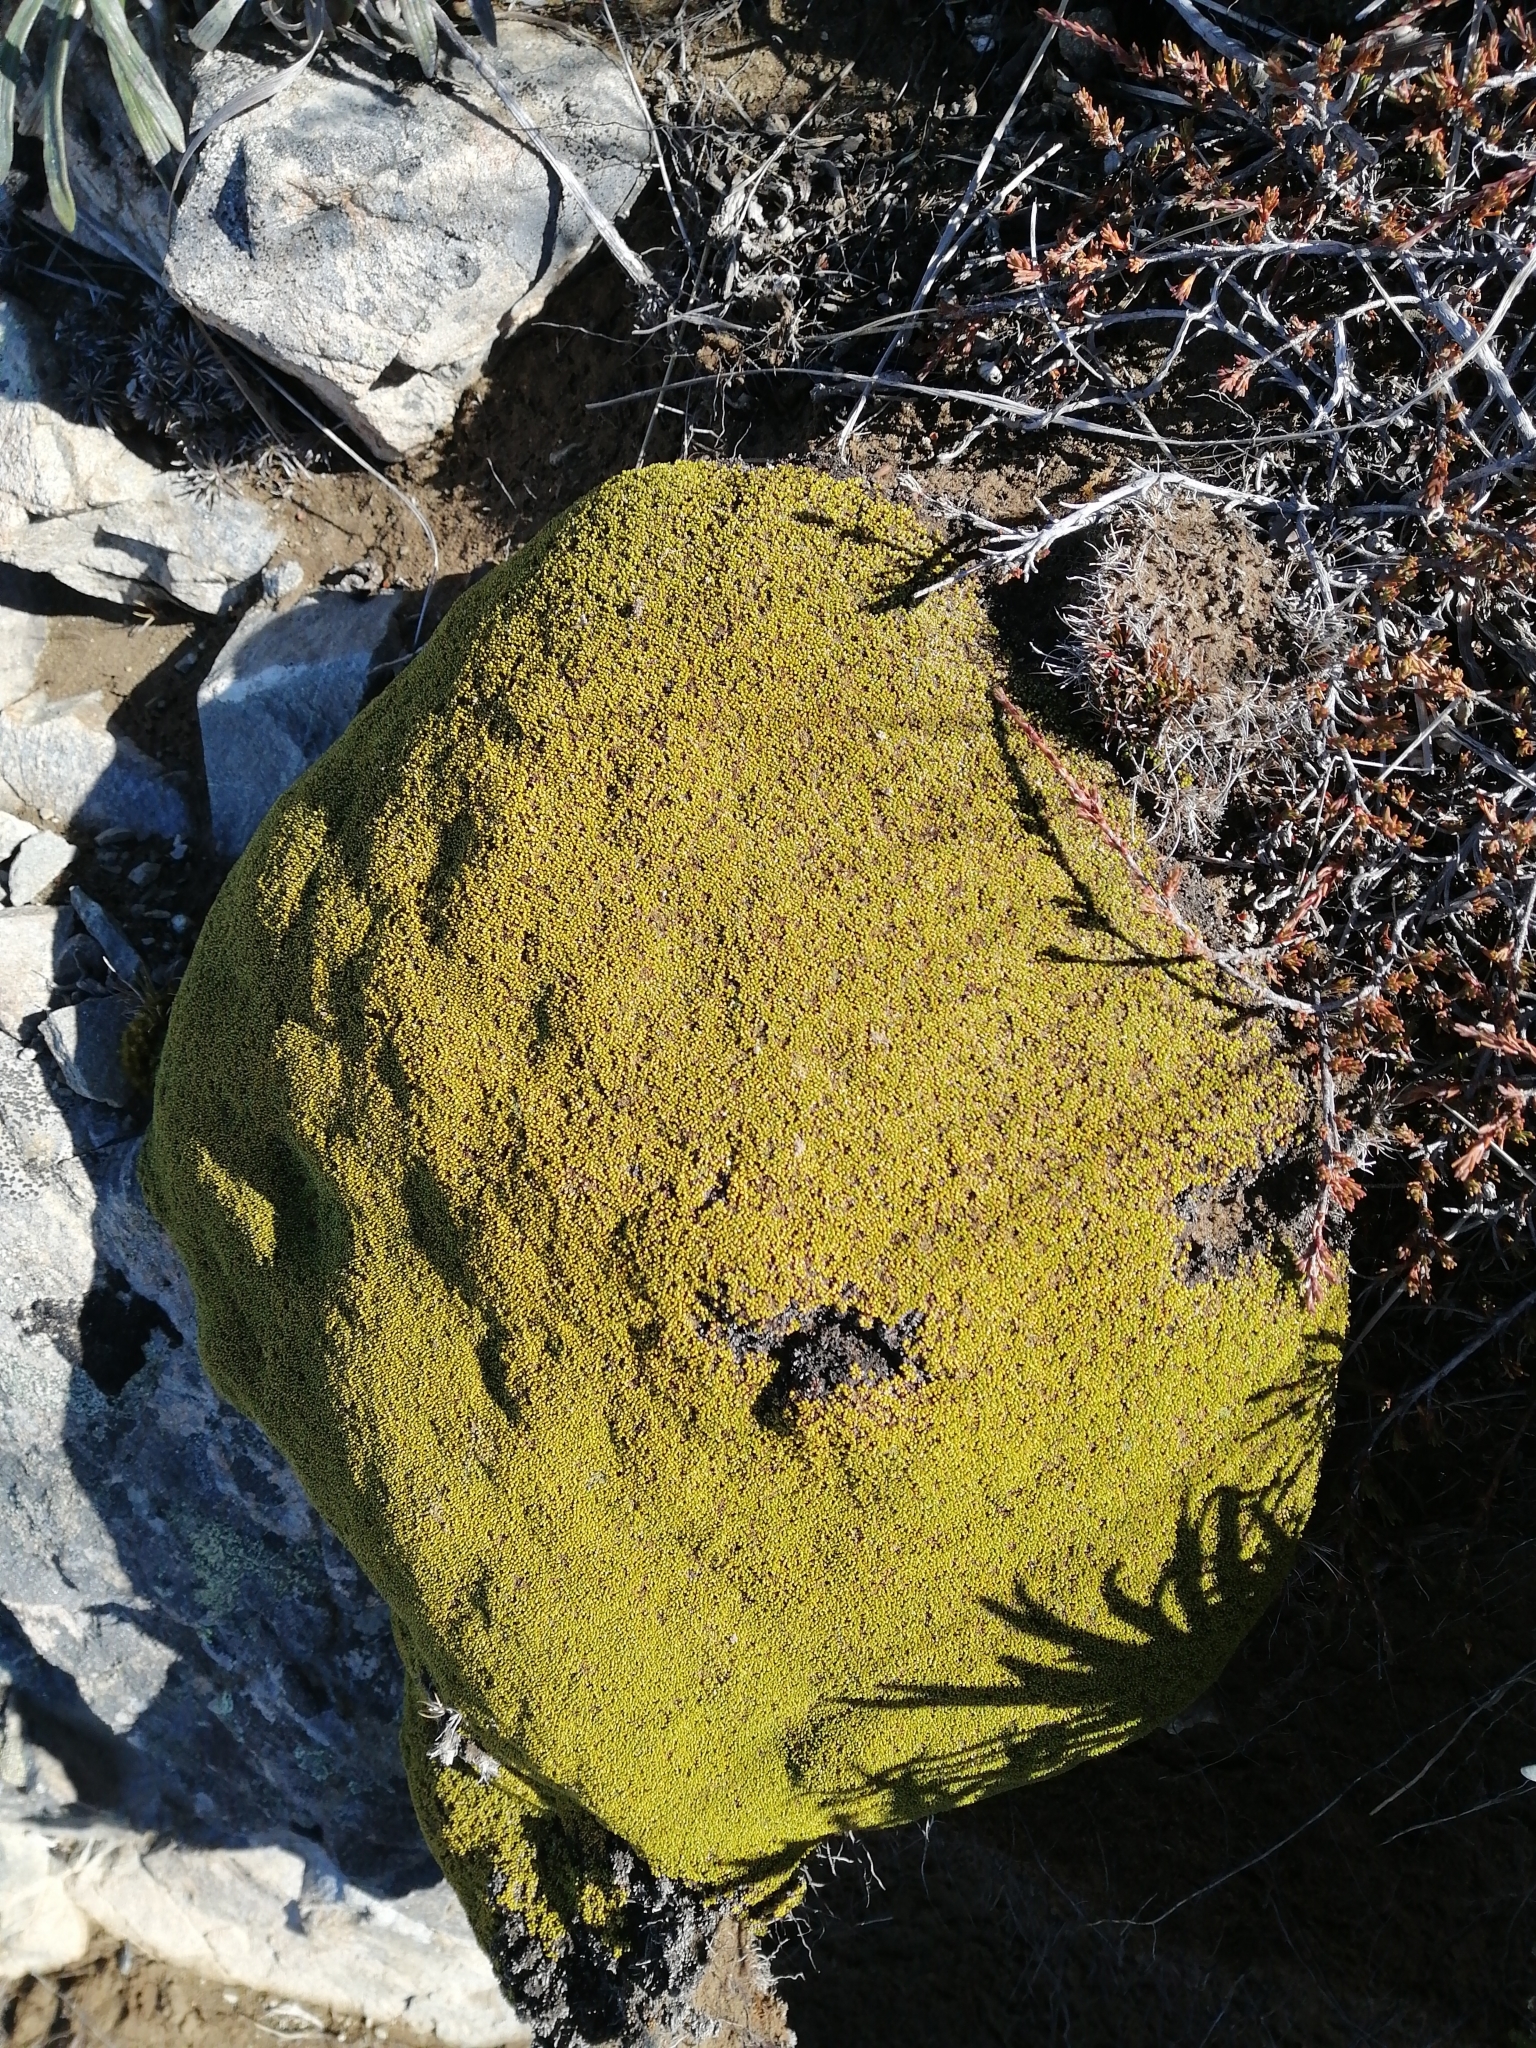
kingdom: Plantae
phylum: Tracheophyta
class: Magnoliopsida
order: Asterales
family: Stylidiaceae
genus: Phyllachne
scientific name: Phyllachne colensoi
